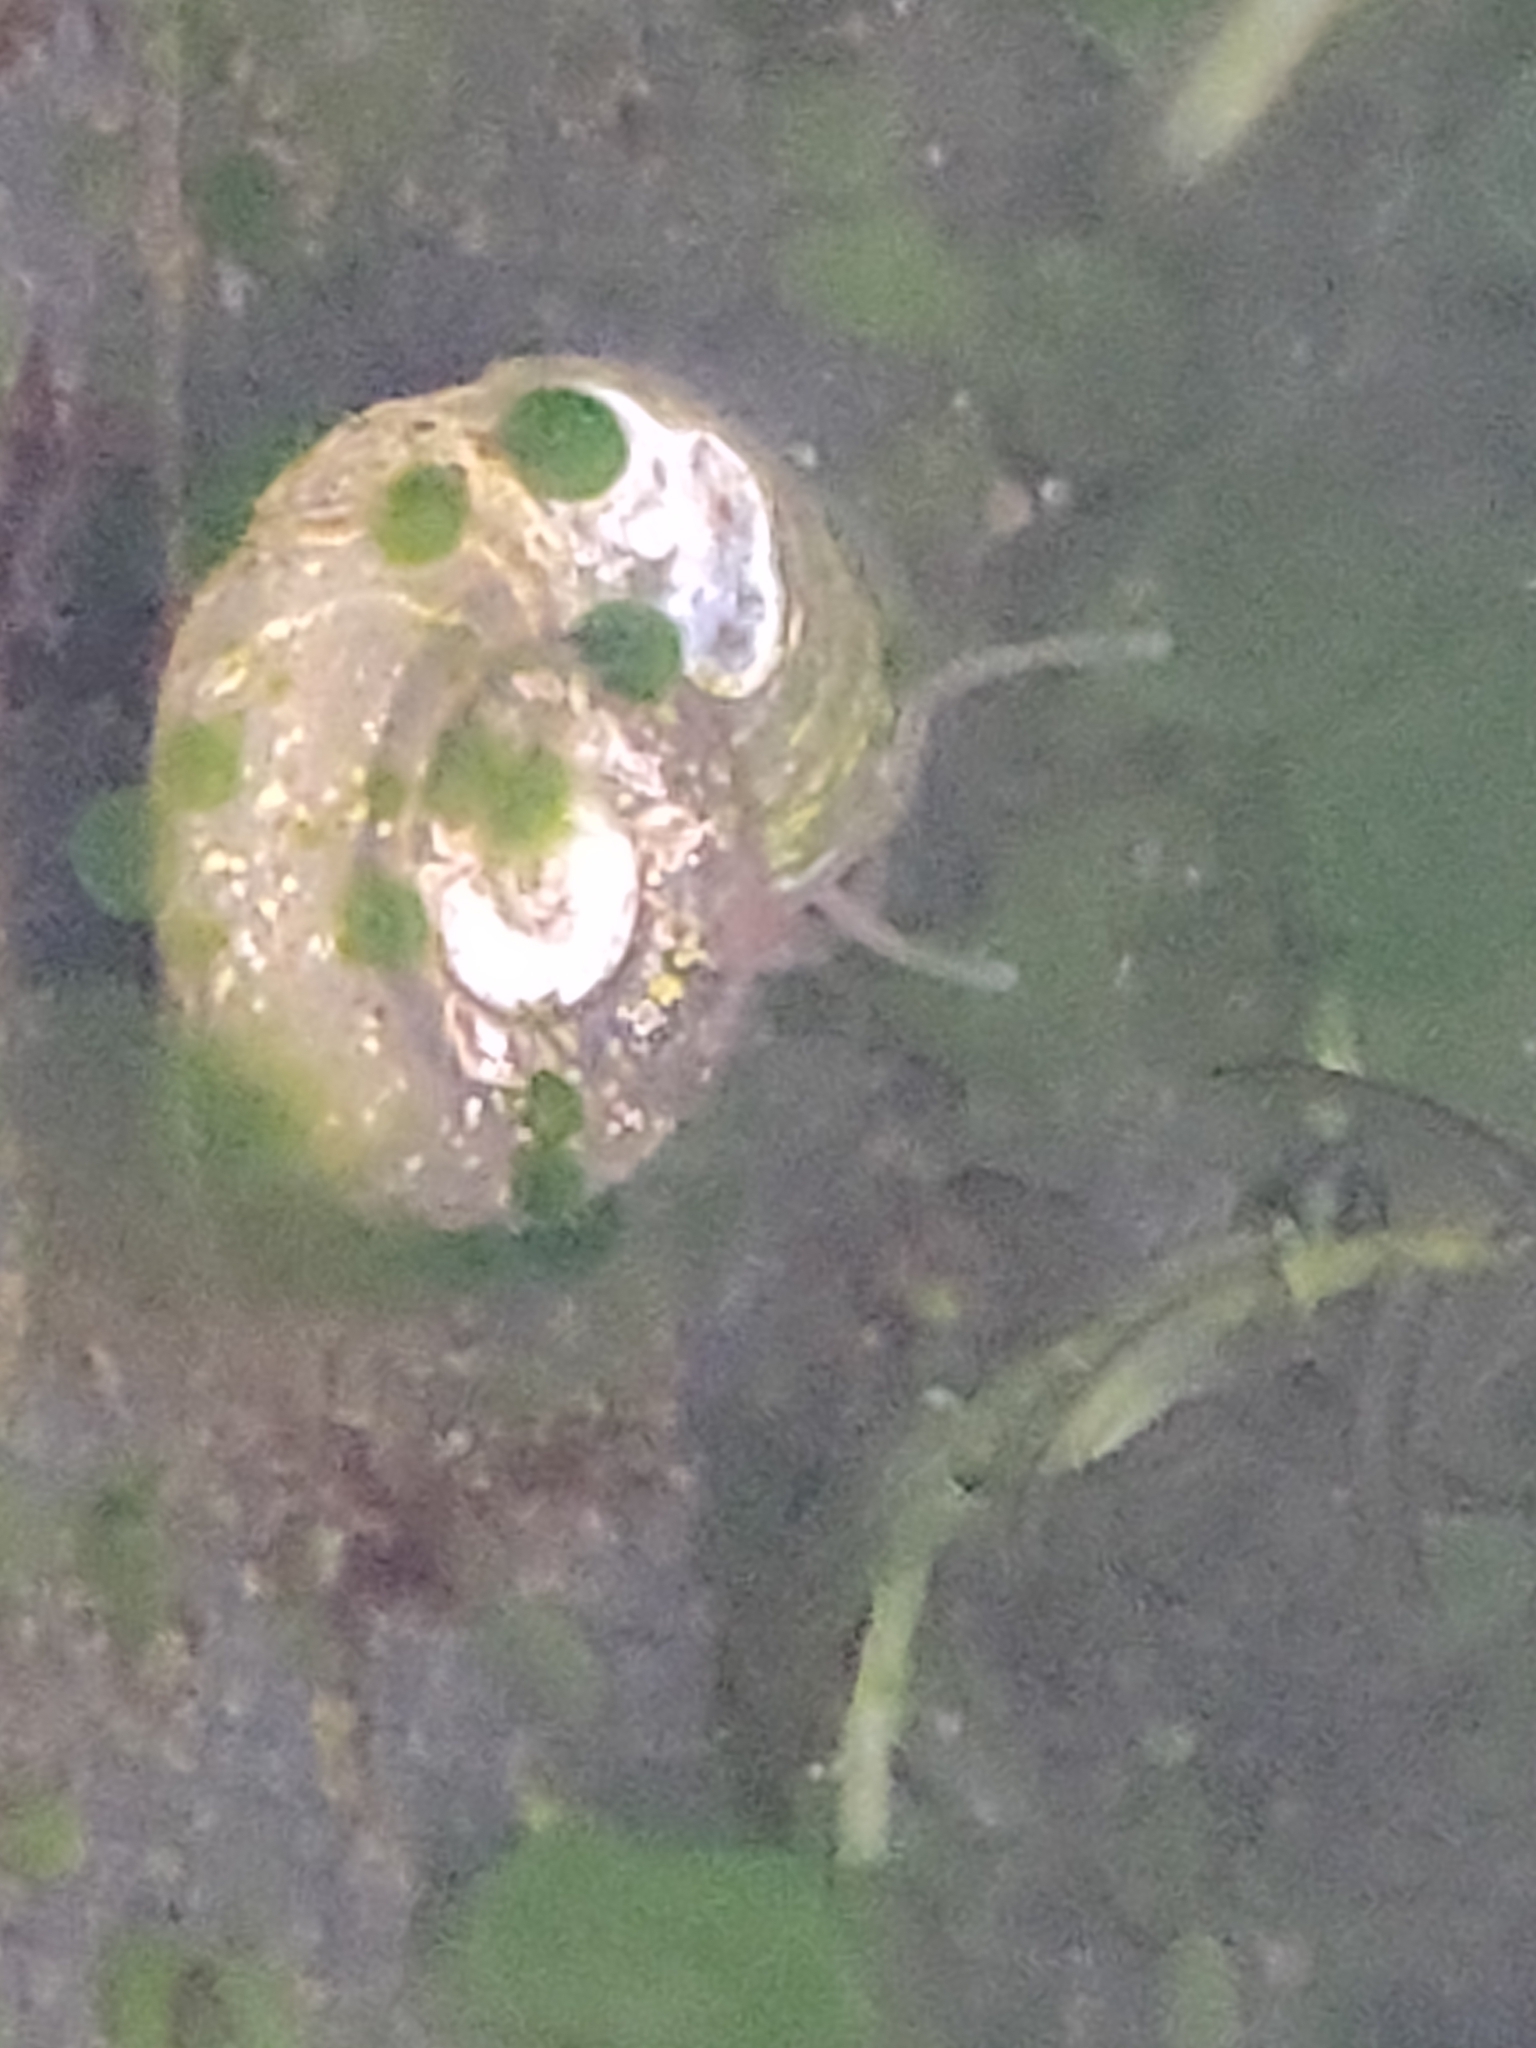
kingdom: Animalia
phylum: Mollusca
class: Gastropoda
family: Planorbidae
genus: Planorbarius
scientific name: Planorbarius corneus
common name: Great ramshorn
